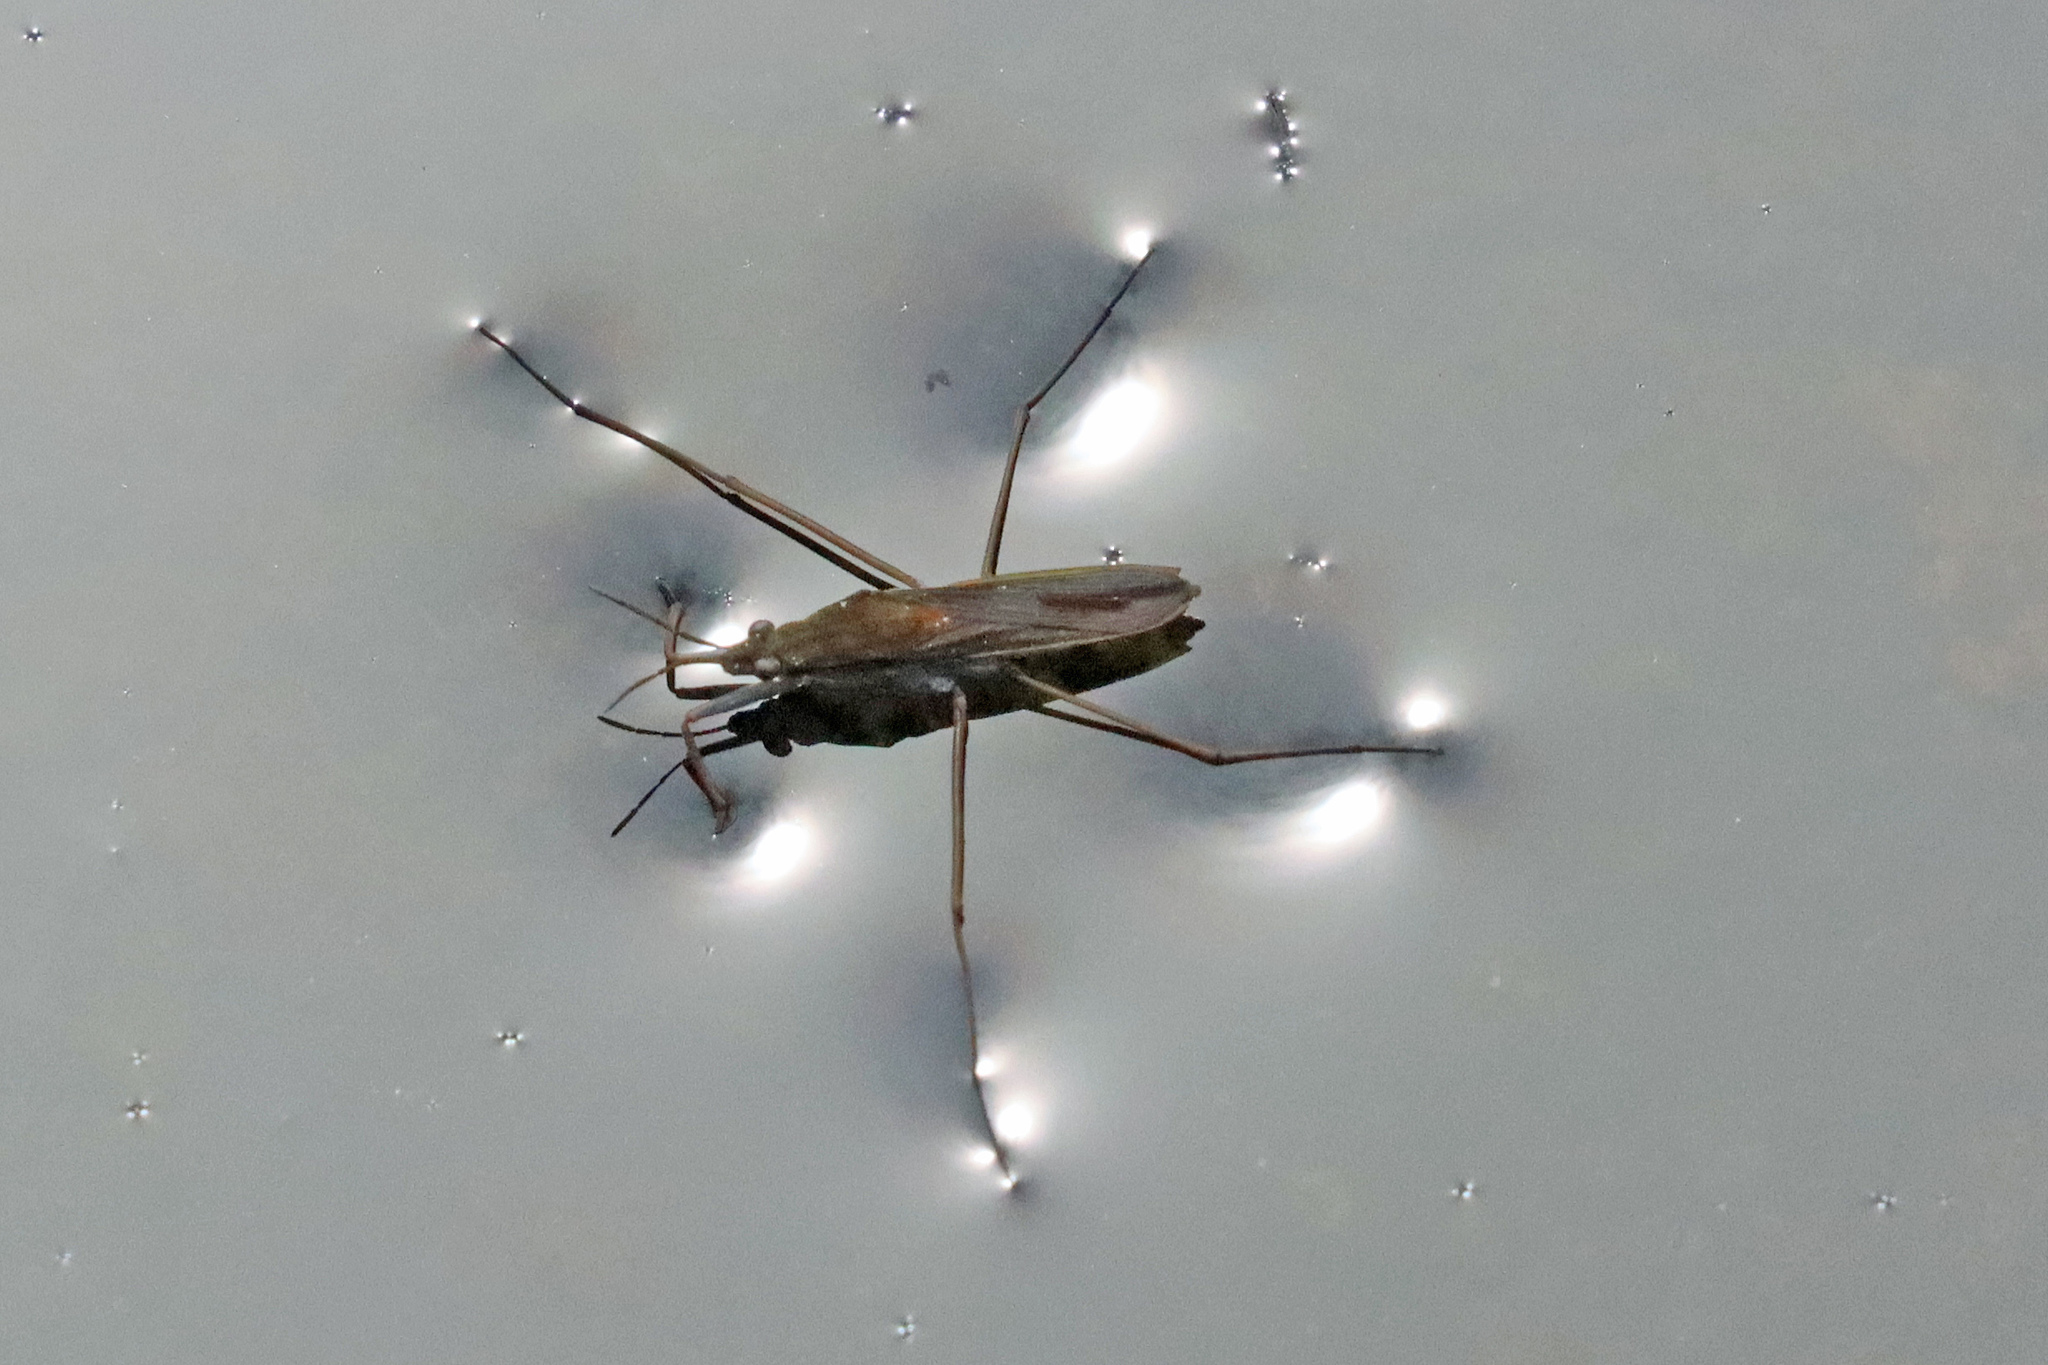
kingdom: Animalia
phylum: Arthropoda
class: Insecta
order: Hemiptera
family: Gerridae
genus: Gerris
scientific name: Gerris thoracicus
